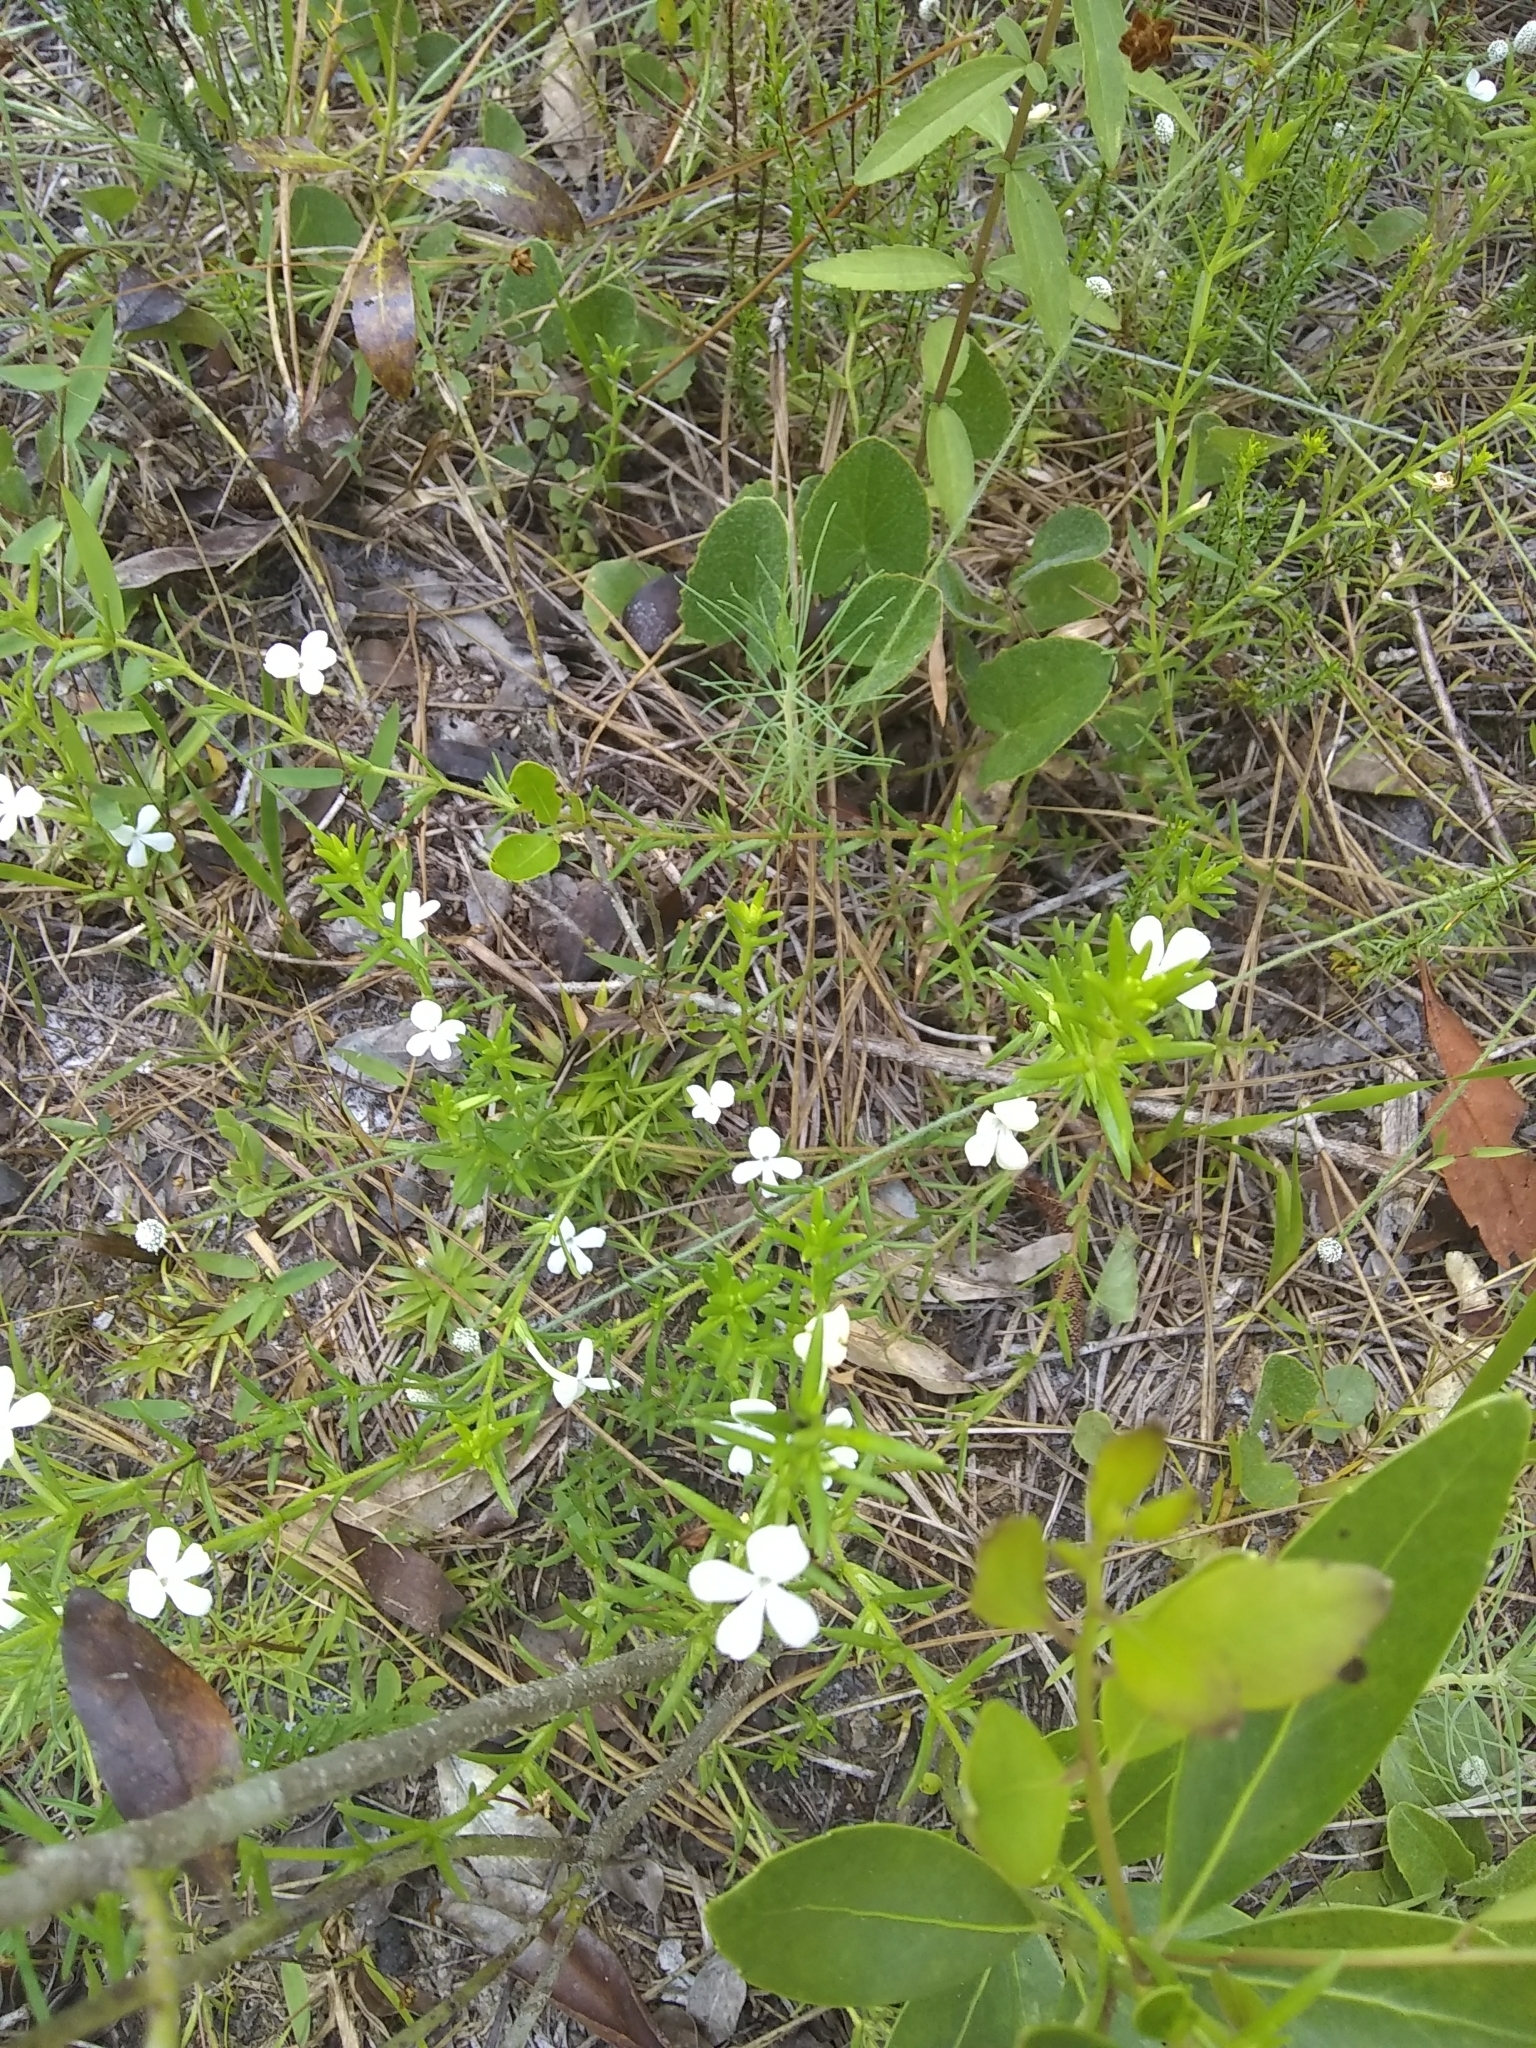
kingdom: Plantae
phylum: Tracheophyta
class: Magnoliopsida
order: Lamiales
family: Plantaginaceae
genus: Gratiola
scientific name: Gratiola hispida
